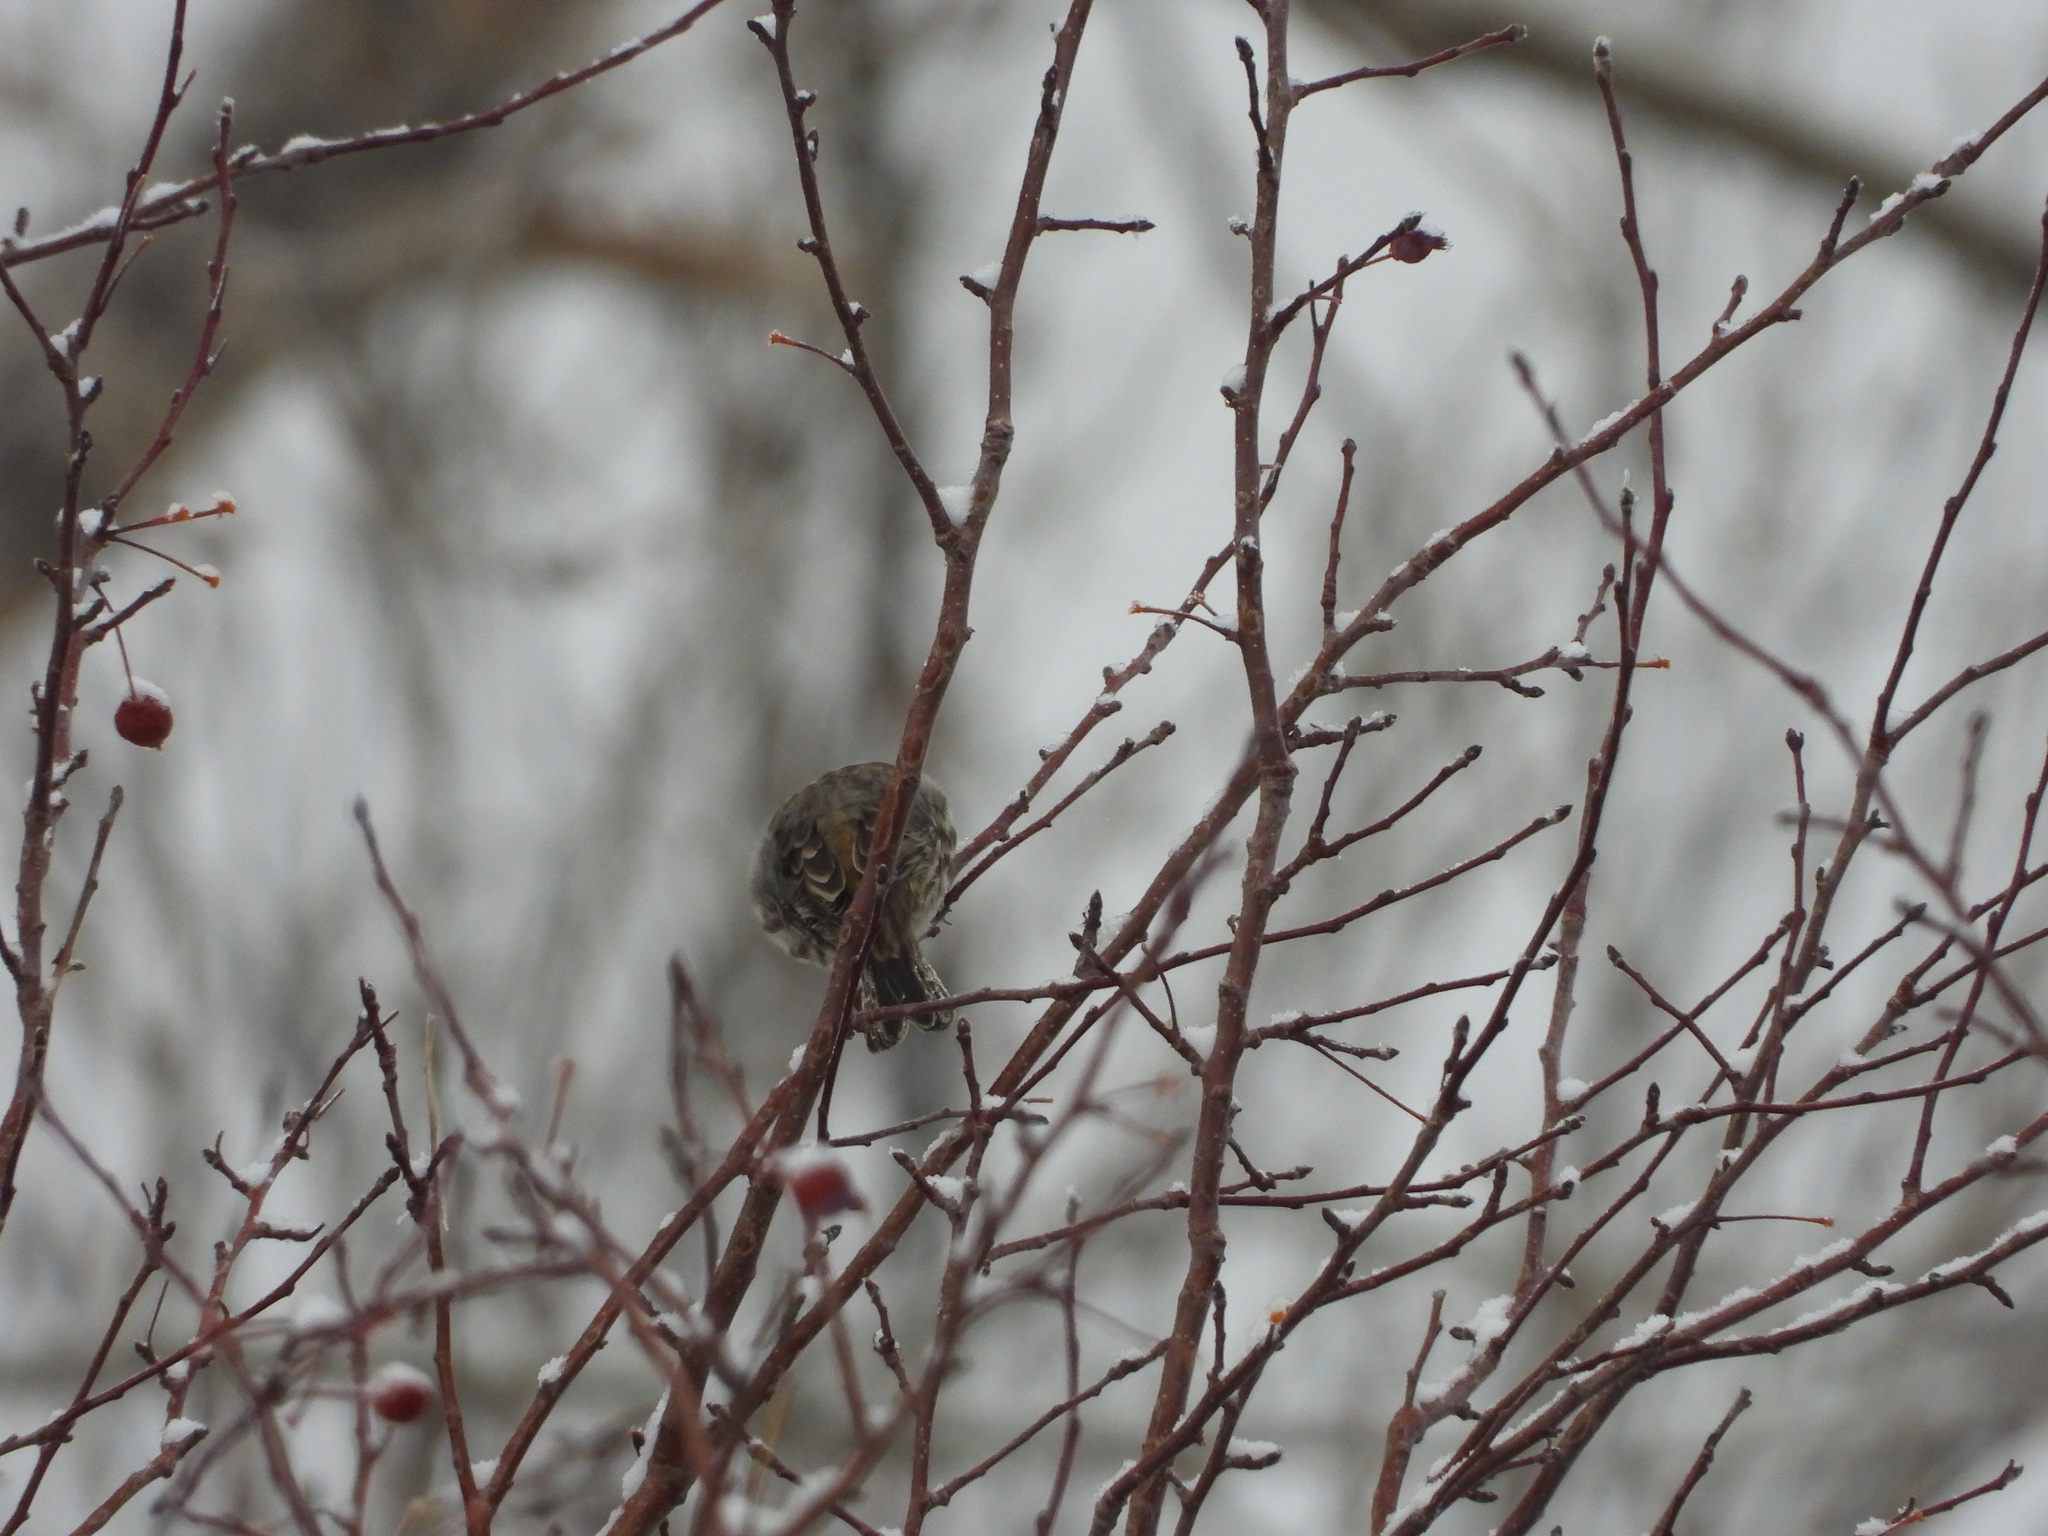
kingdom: Animalia
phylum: Chordata
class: Aves
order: Passeriformes
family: Fringillidae
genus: Haemorhous
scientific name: Haemorhous mexicanus
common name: House finch
